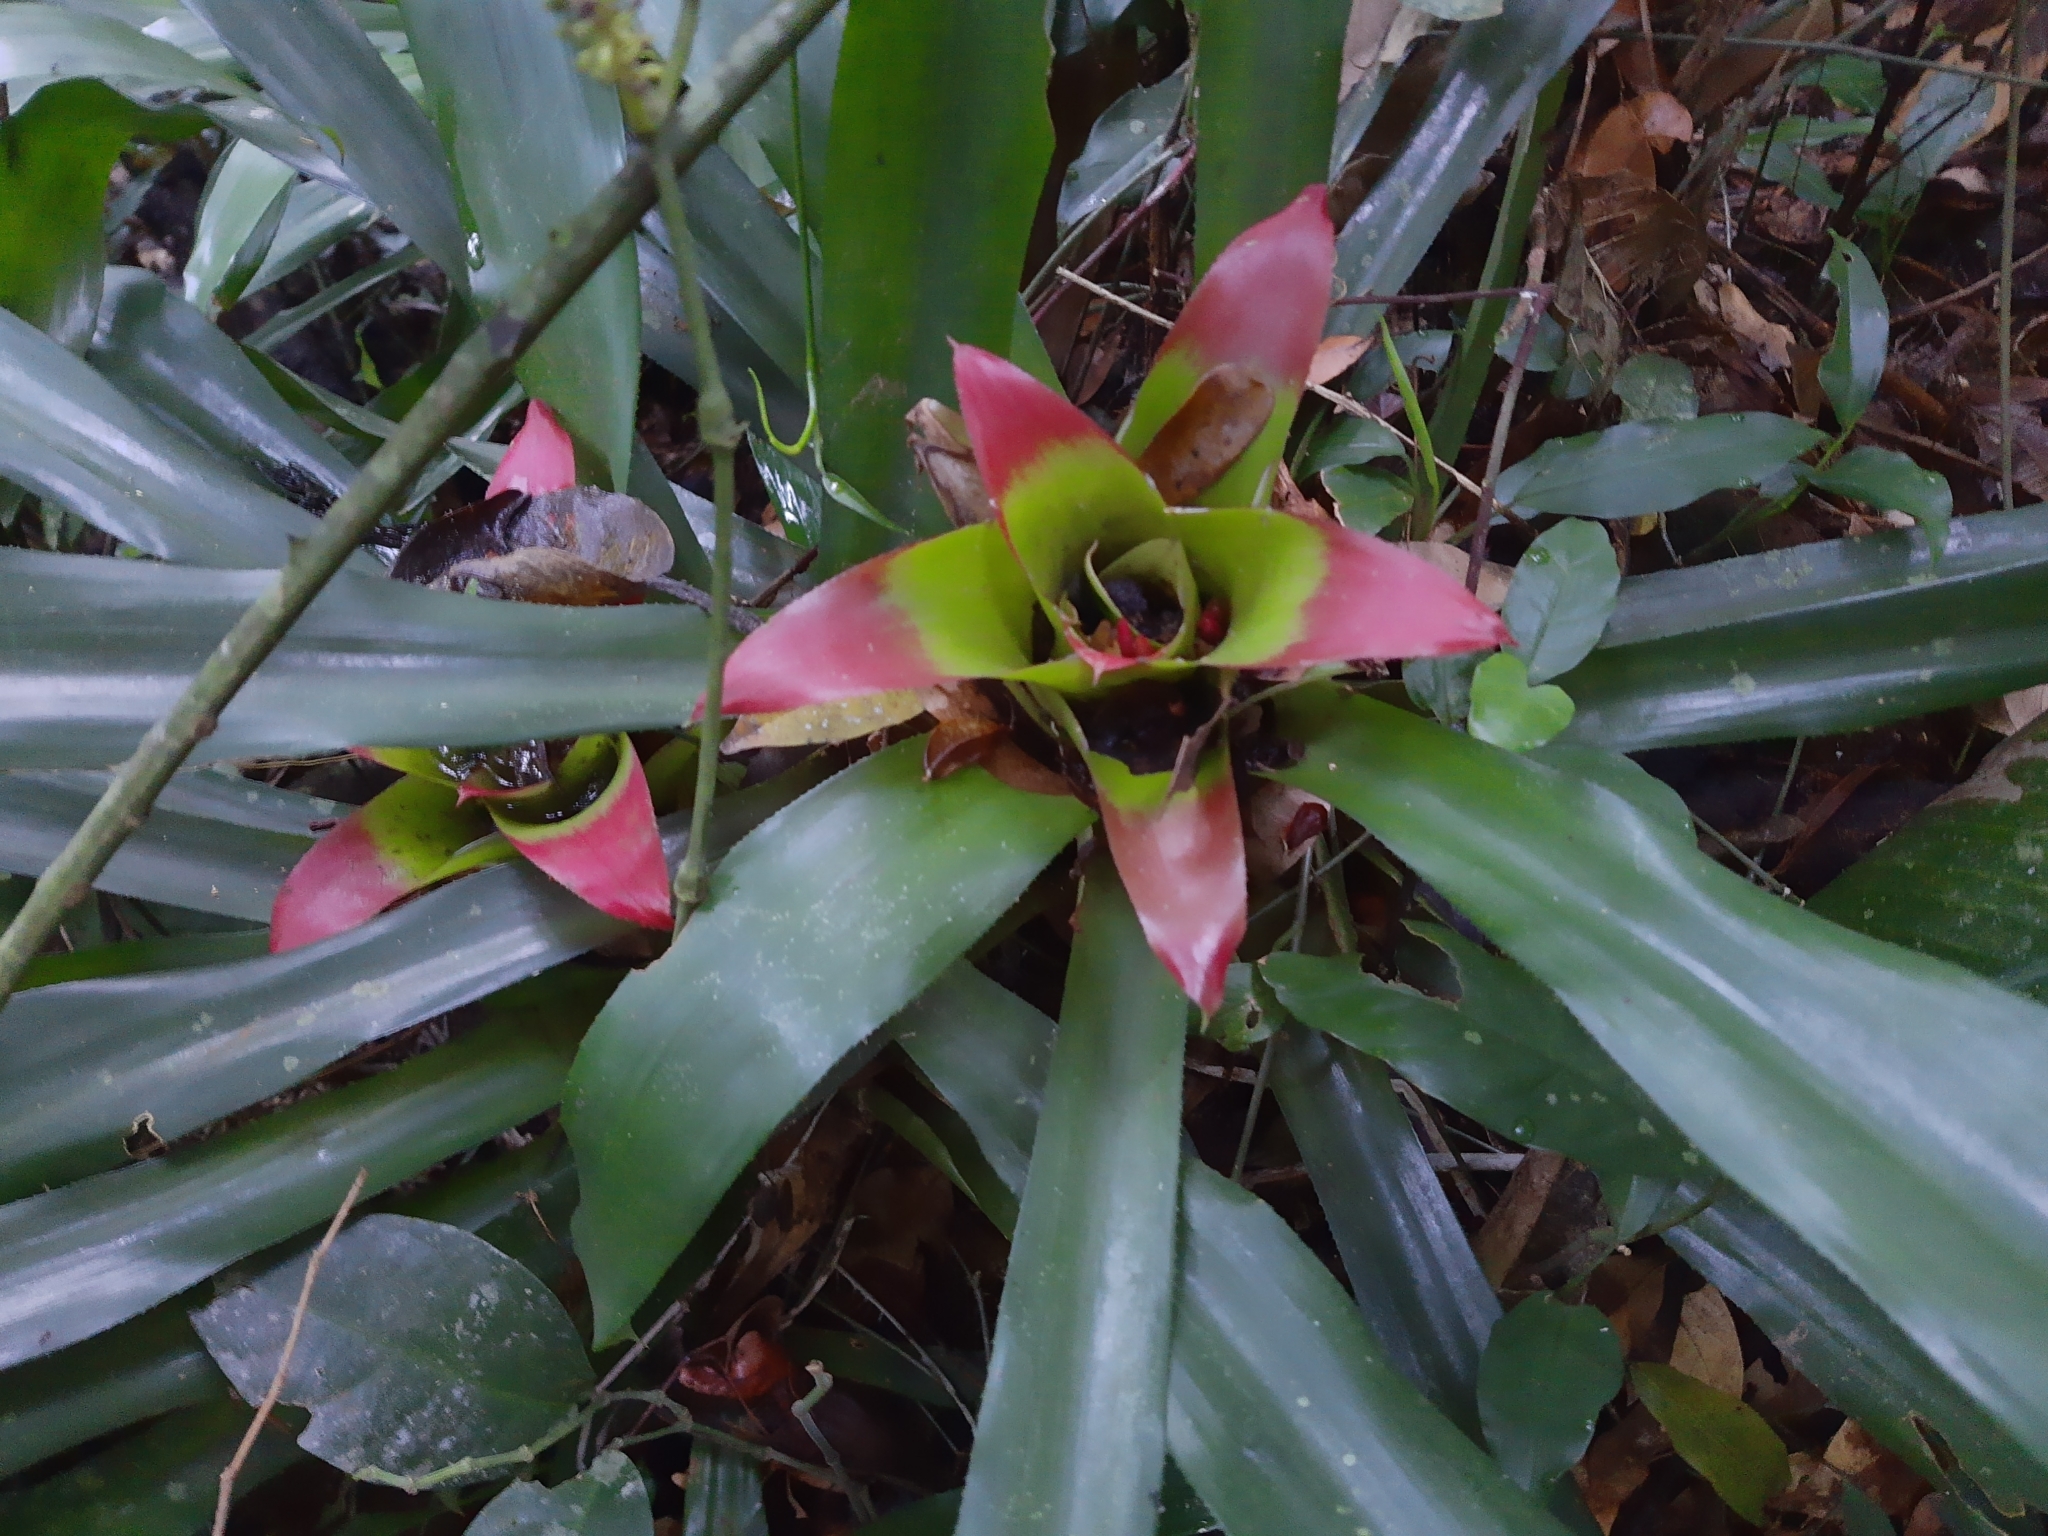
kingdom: Plantae
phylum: Tracheophyta
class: Liliopsida
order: Poales
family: Bromeliaceae
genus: Nidularium
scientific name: Nidularium innocentii
